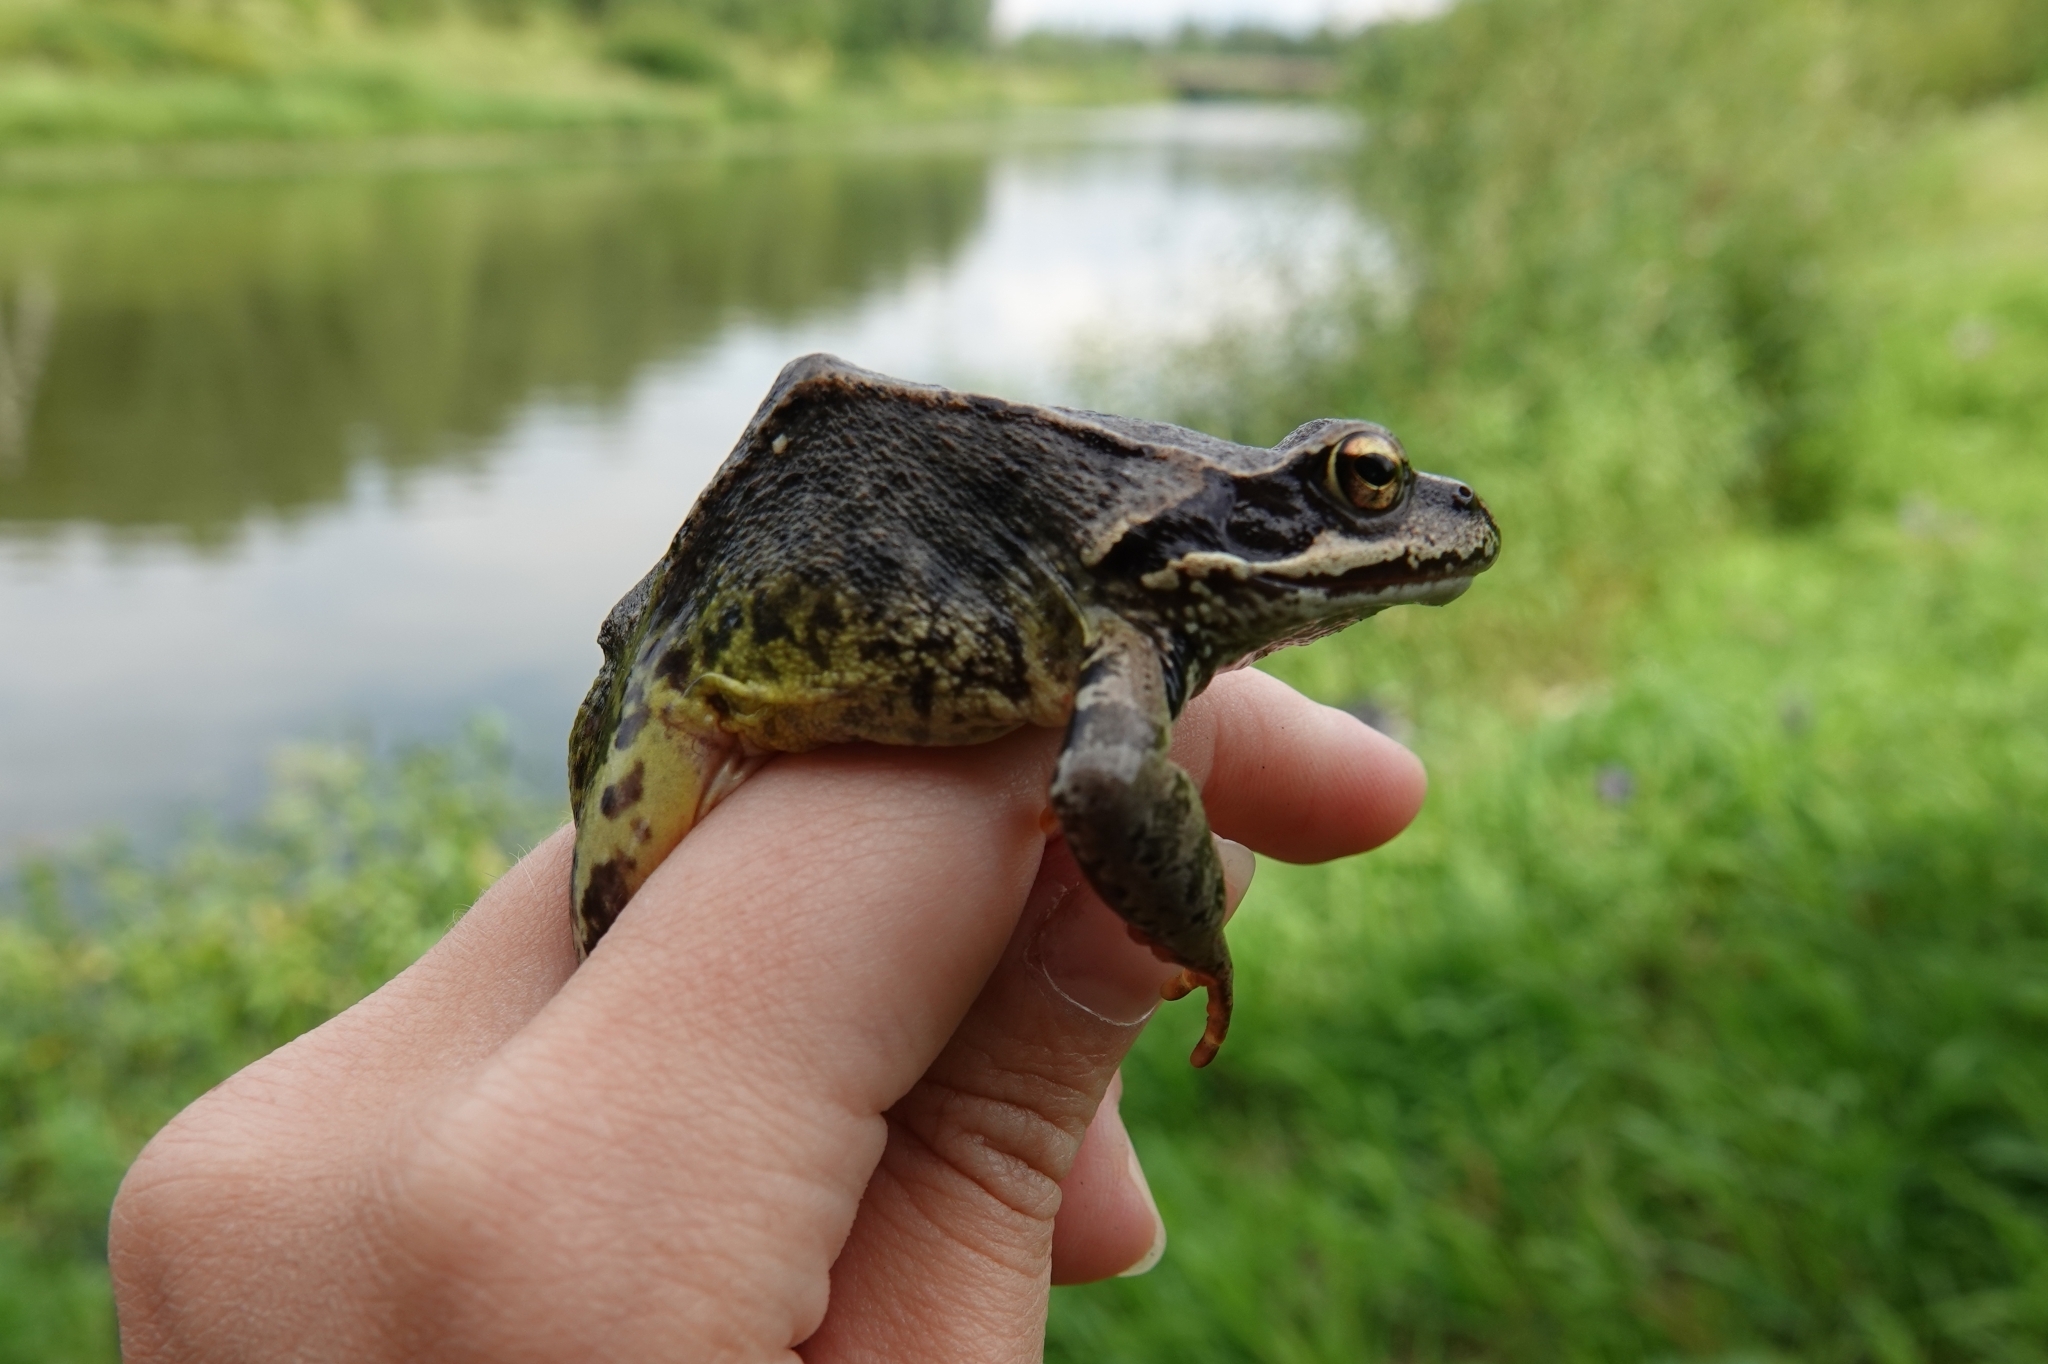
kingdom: Animalia
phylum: Chordata
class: Amphibia
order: Anura
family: Ranidae
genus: Rana
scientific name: Rana temporaria
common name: Common frog
